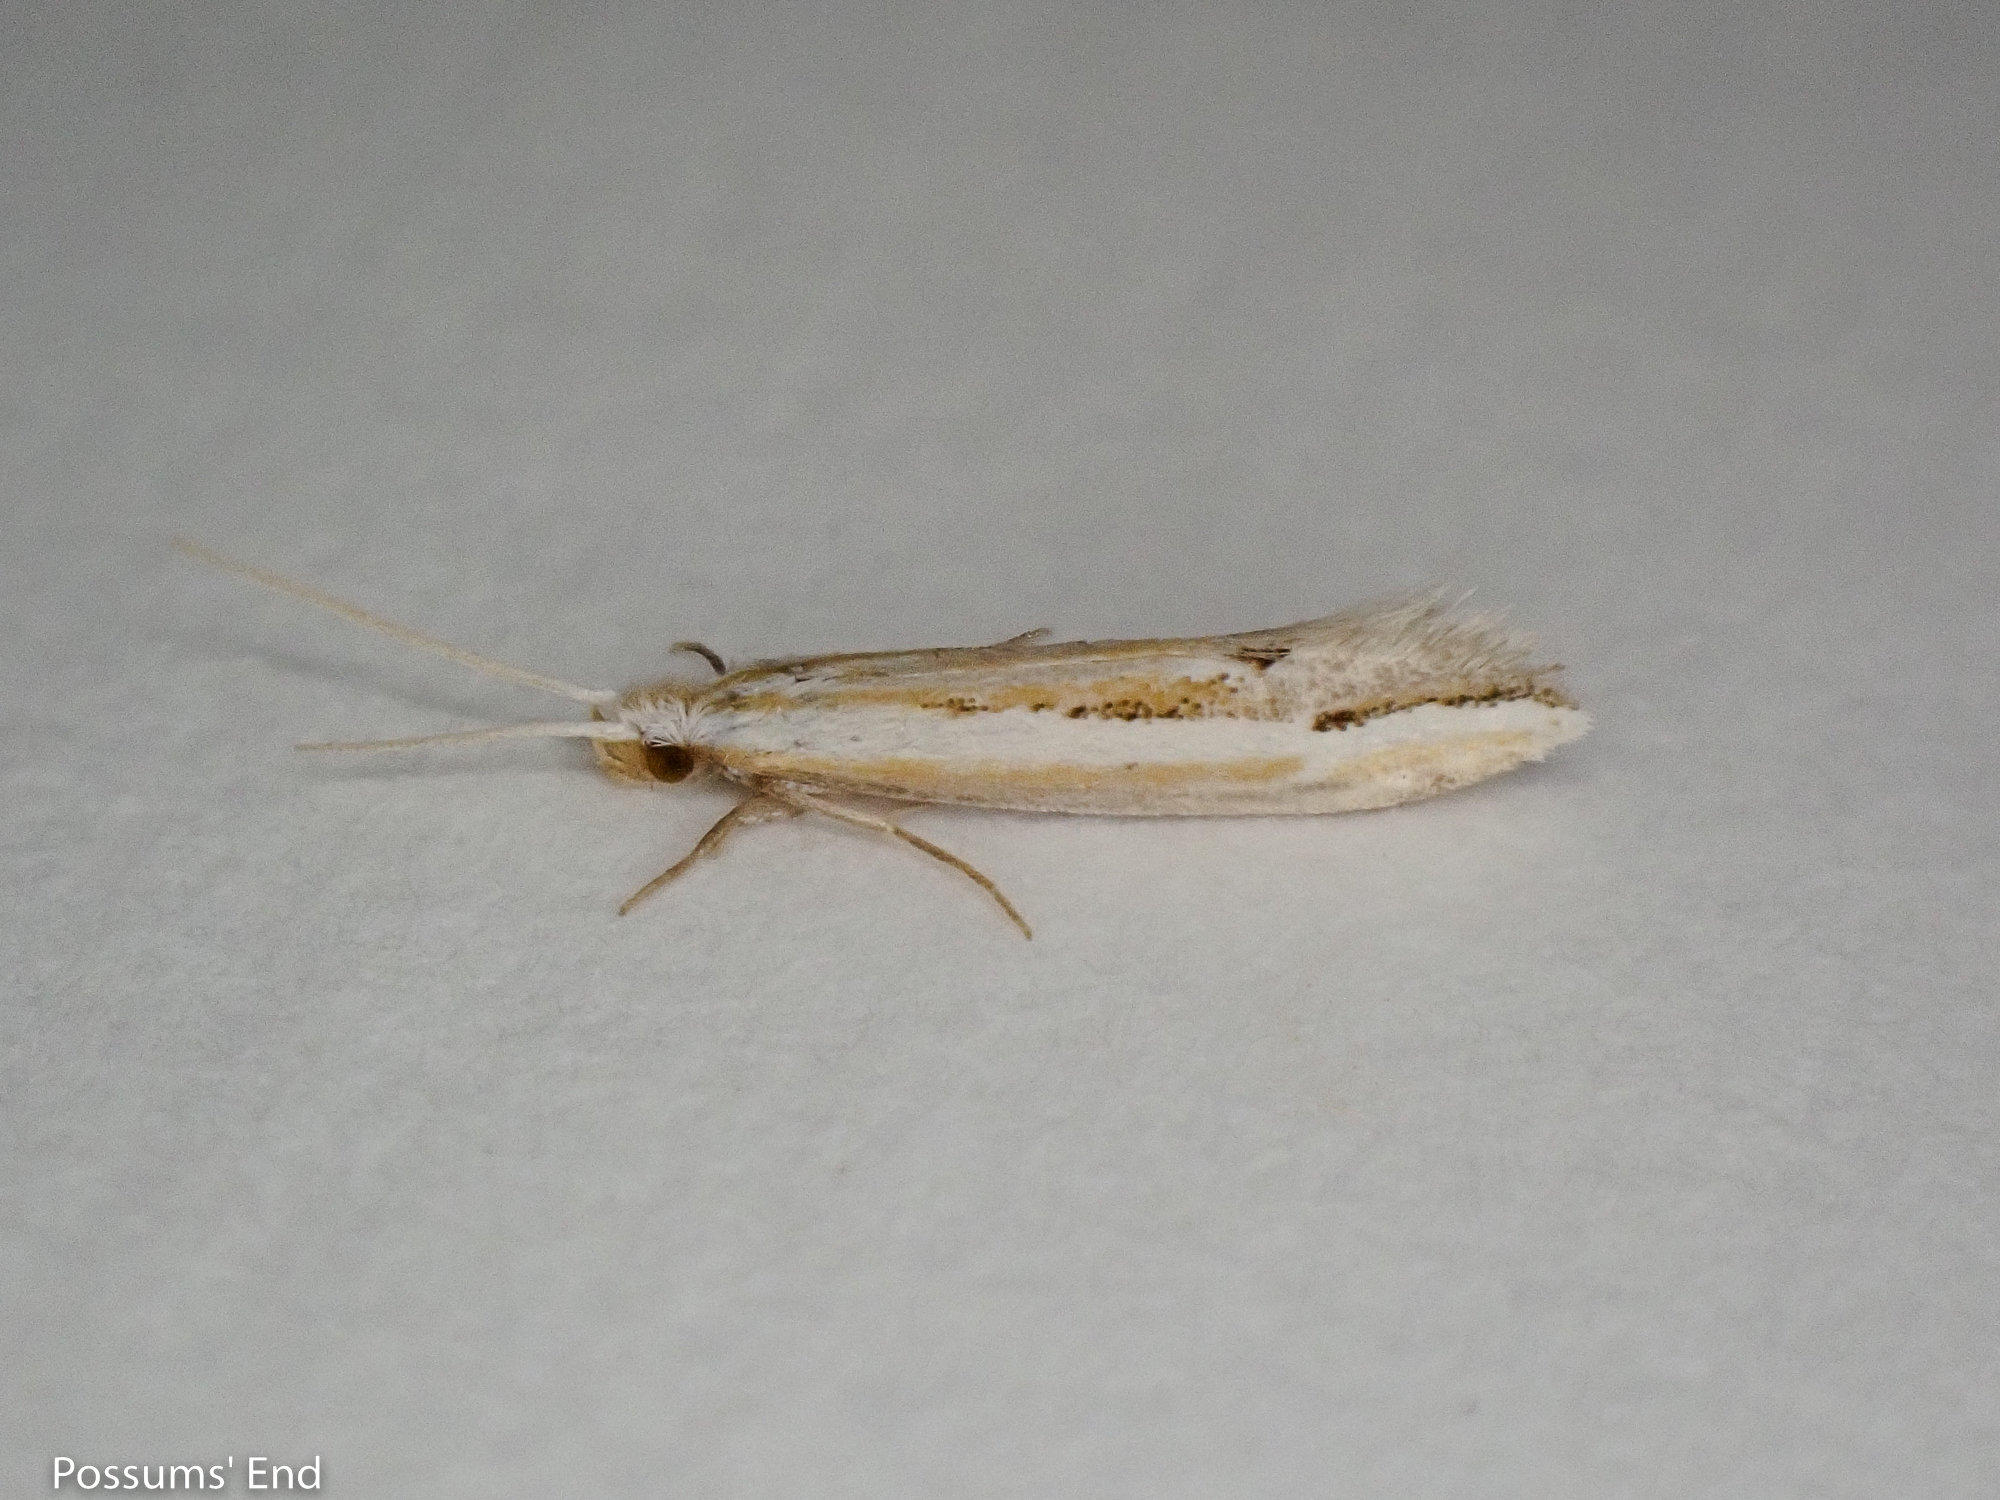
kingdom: Animalia
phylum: Arthropoda
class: Insecta
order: Lepidoptera
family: Tineidae
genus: Sagephora
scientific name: Sagephora exsanguis
